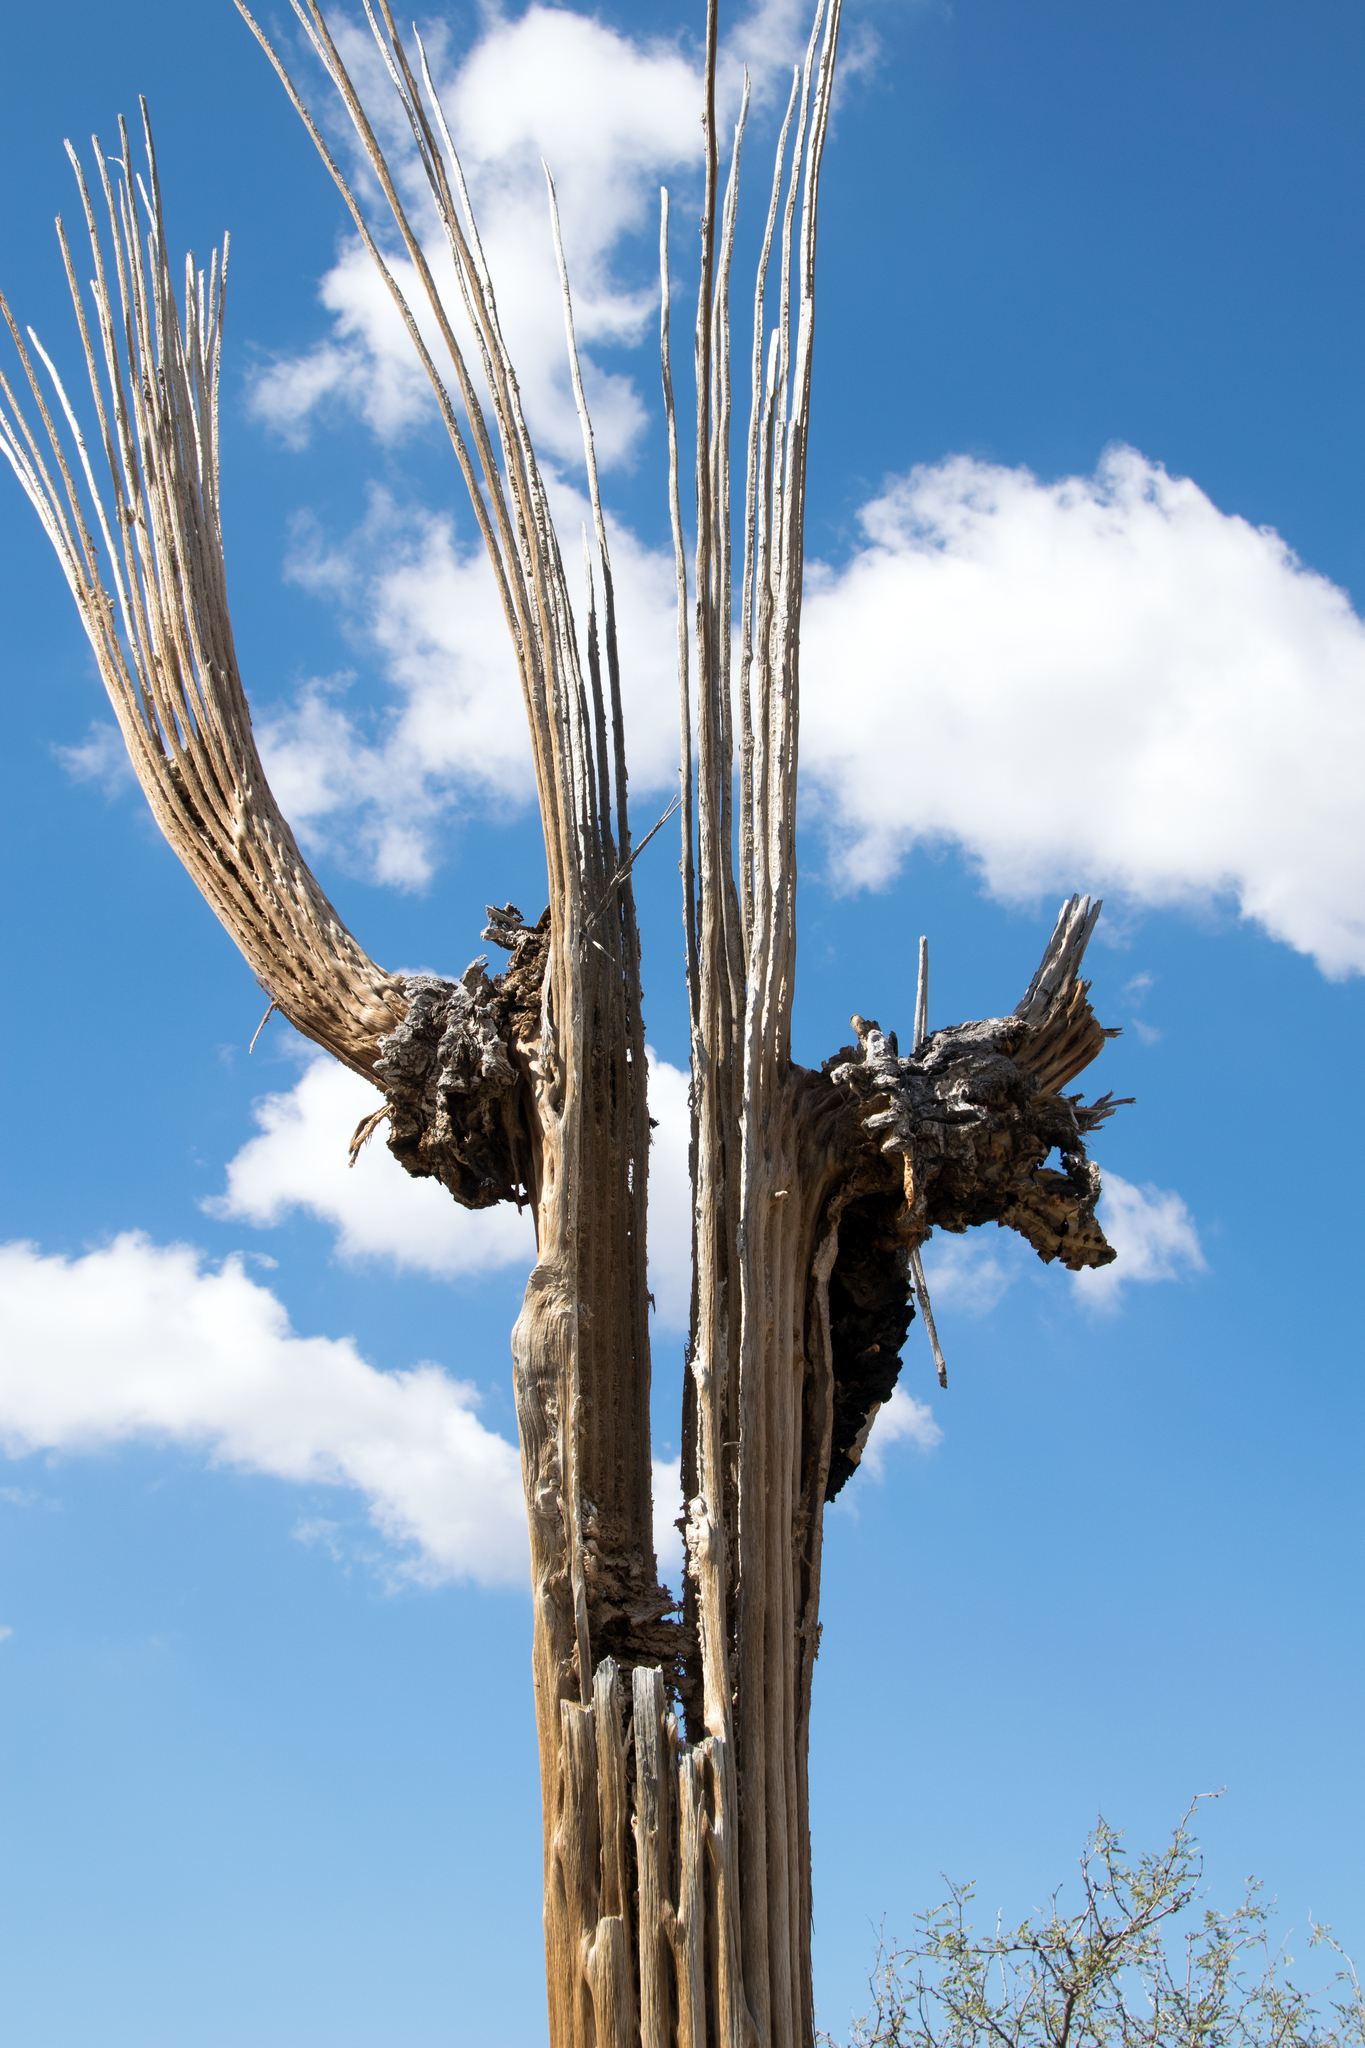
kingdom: Plantae
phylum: Tracheophyta
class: Magnoliopsida
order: Caryophyllales
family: Cactaceae
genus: Carnegiea
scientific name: Carnegiea gigantea
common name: Saguaro
